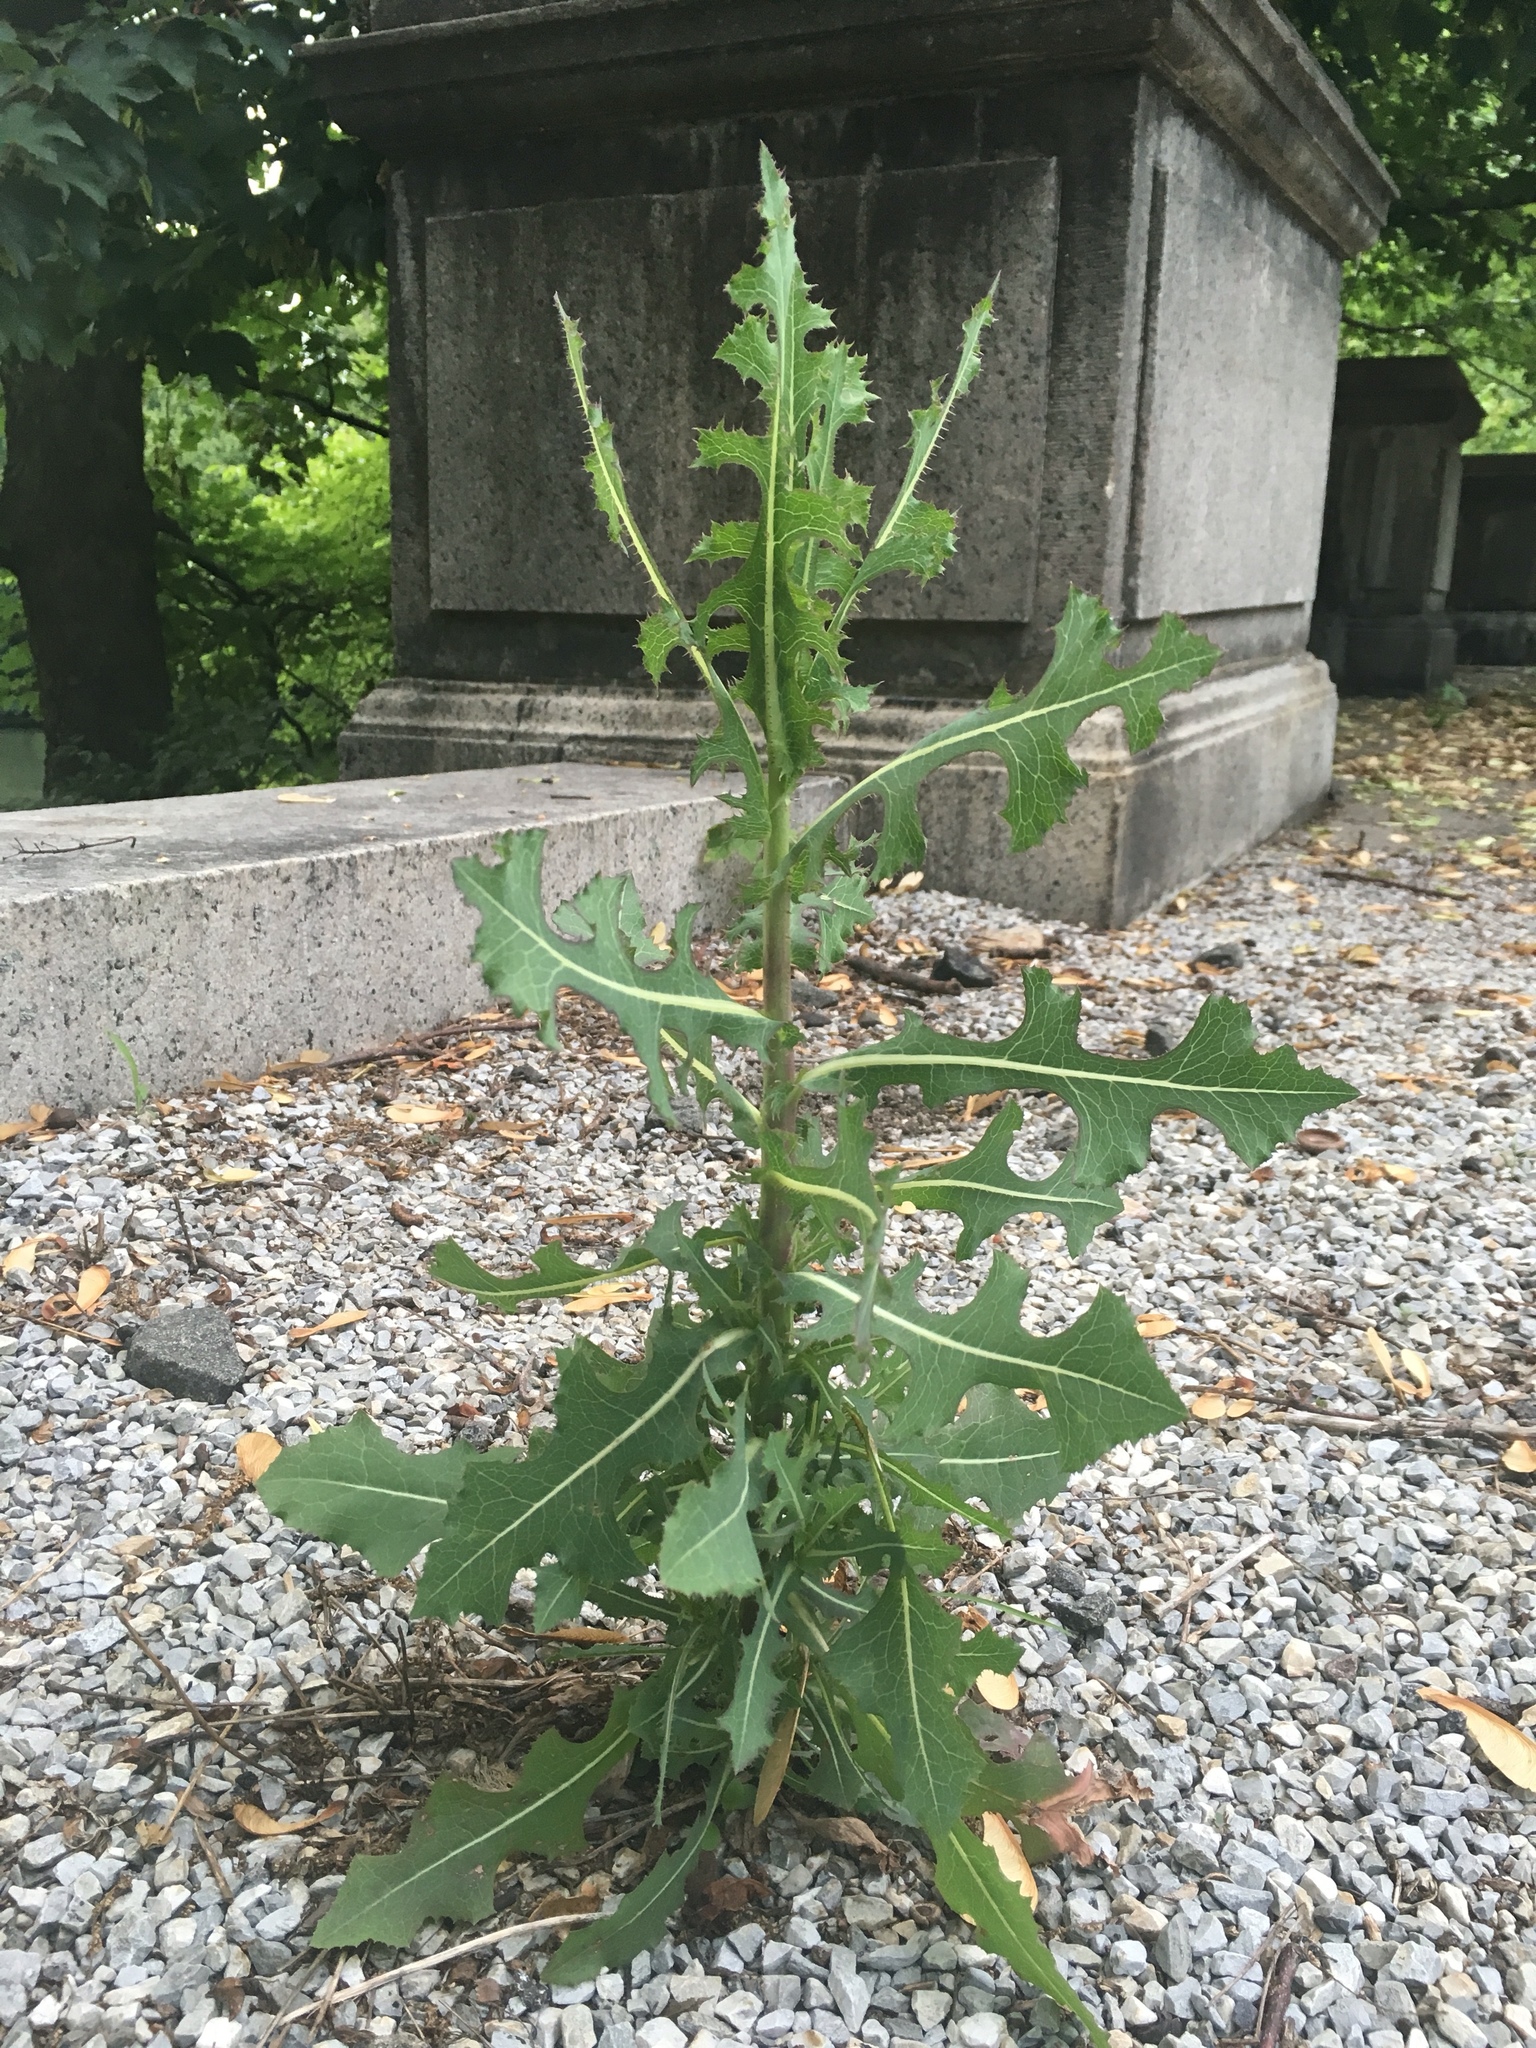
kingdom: Plantae
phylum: Tracheophyta
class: Magnoliopsida
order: Asterales
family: Asteraceae
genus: Lactuca
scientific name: Lactuca serriola
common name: Prickly lettuce
